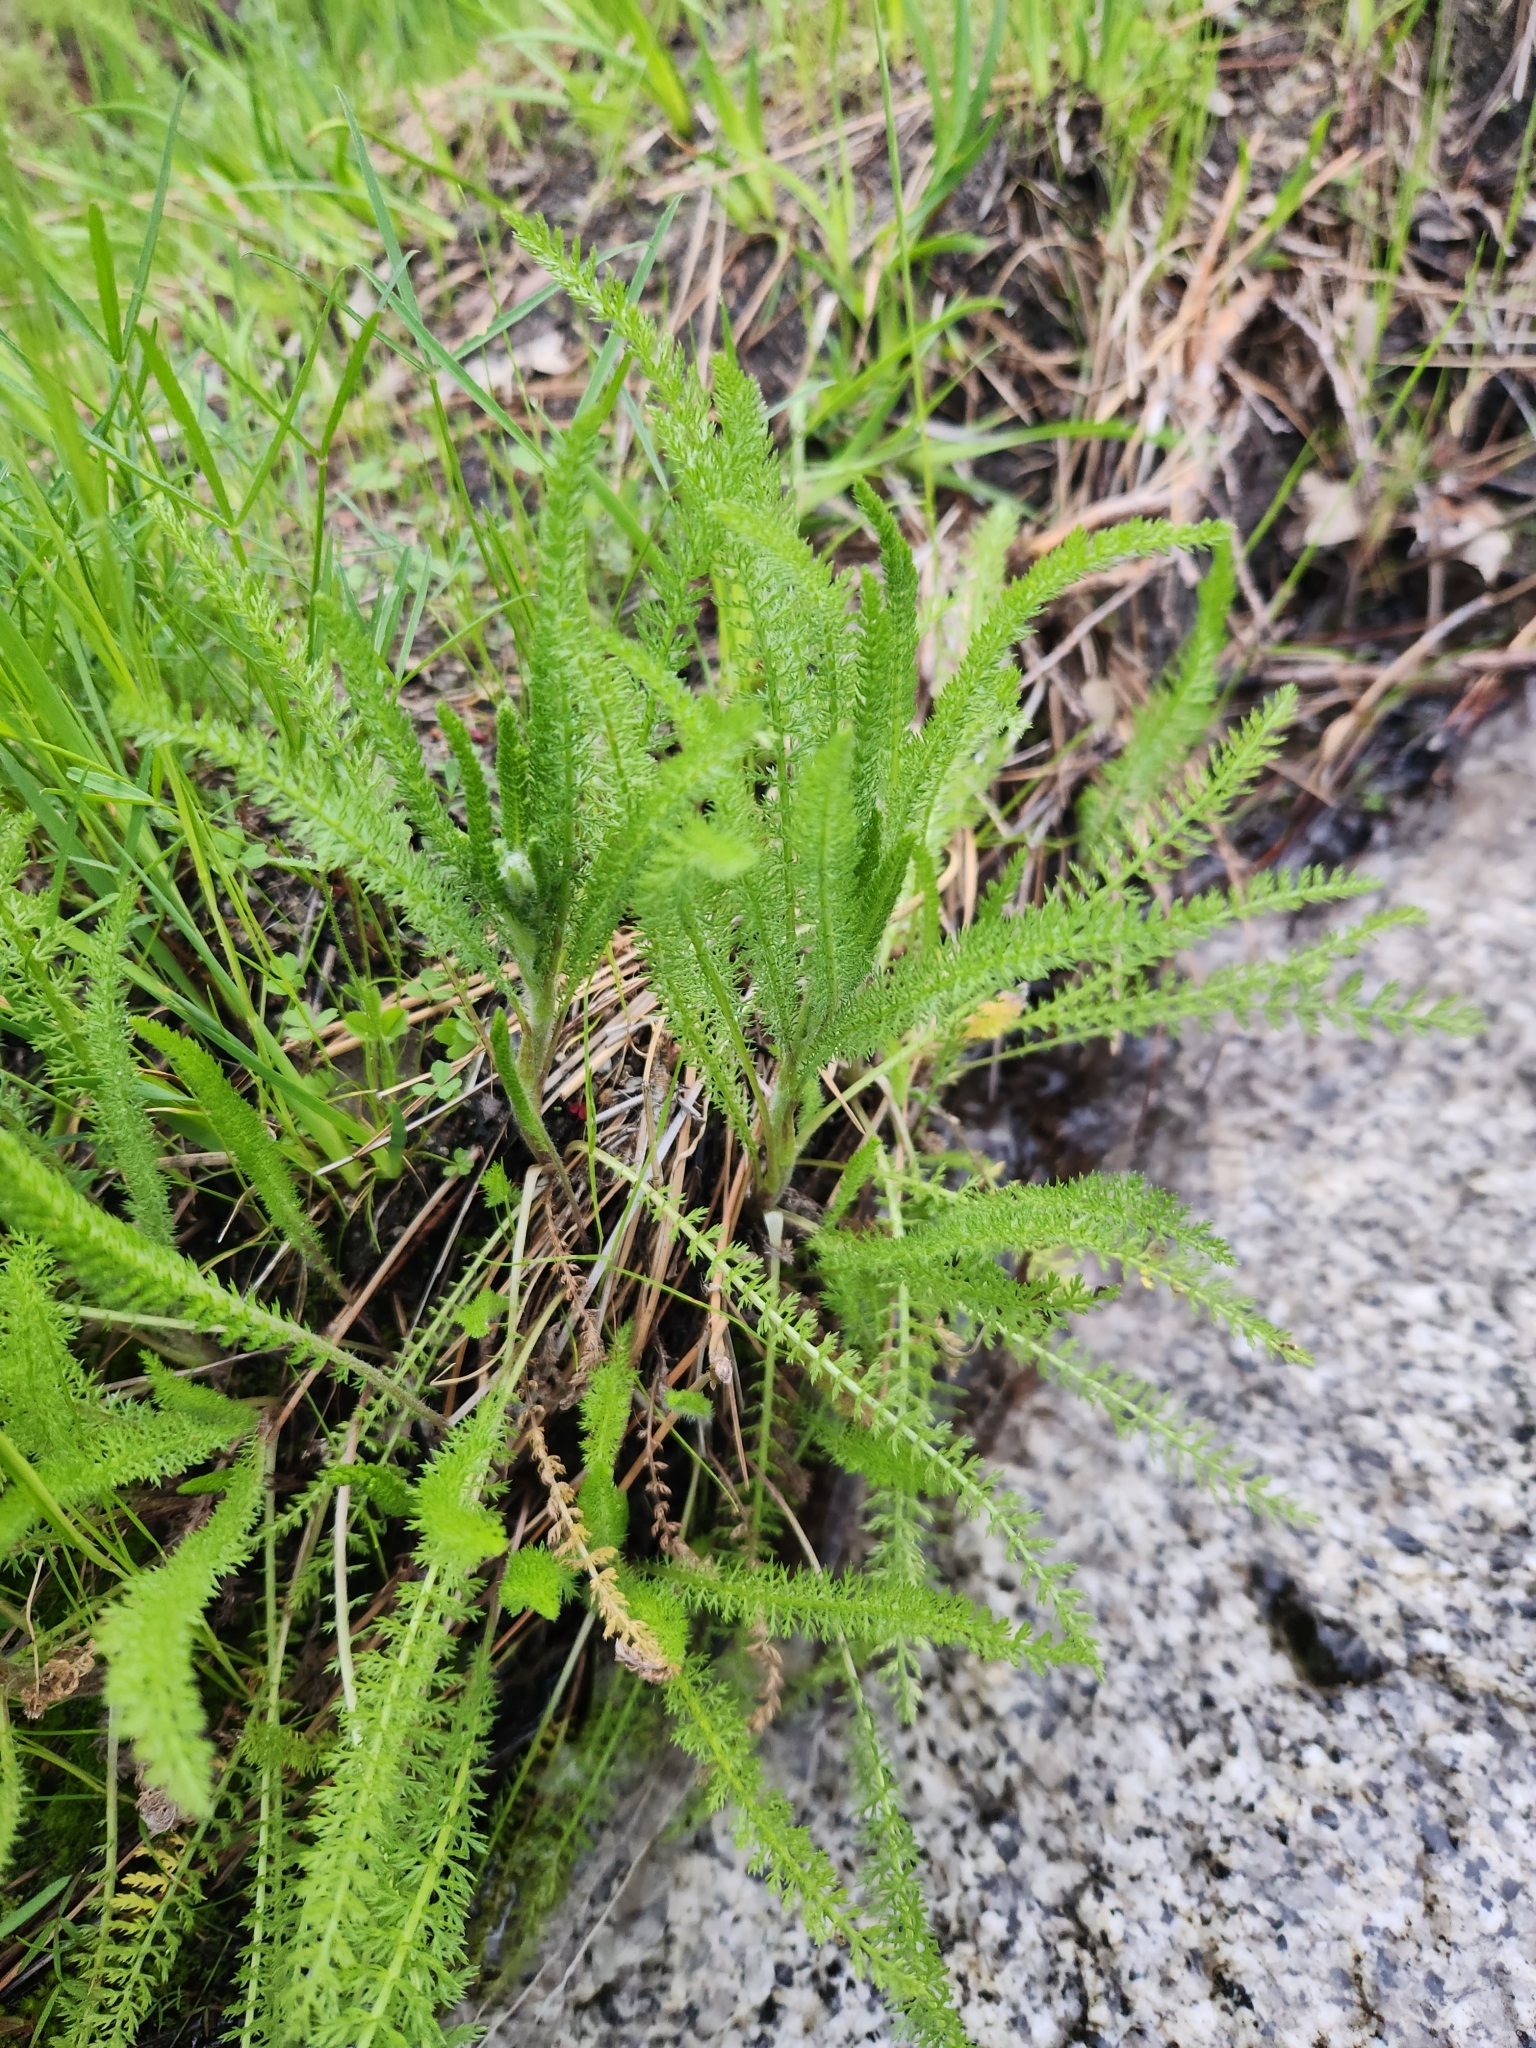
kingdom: Plantae
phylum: Tracheophyta
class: Magnoliopsida
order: Asterales
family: Asteraceae
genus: Achillea
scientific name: Achillea millefolium
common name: Yarrow
